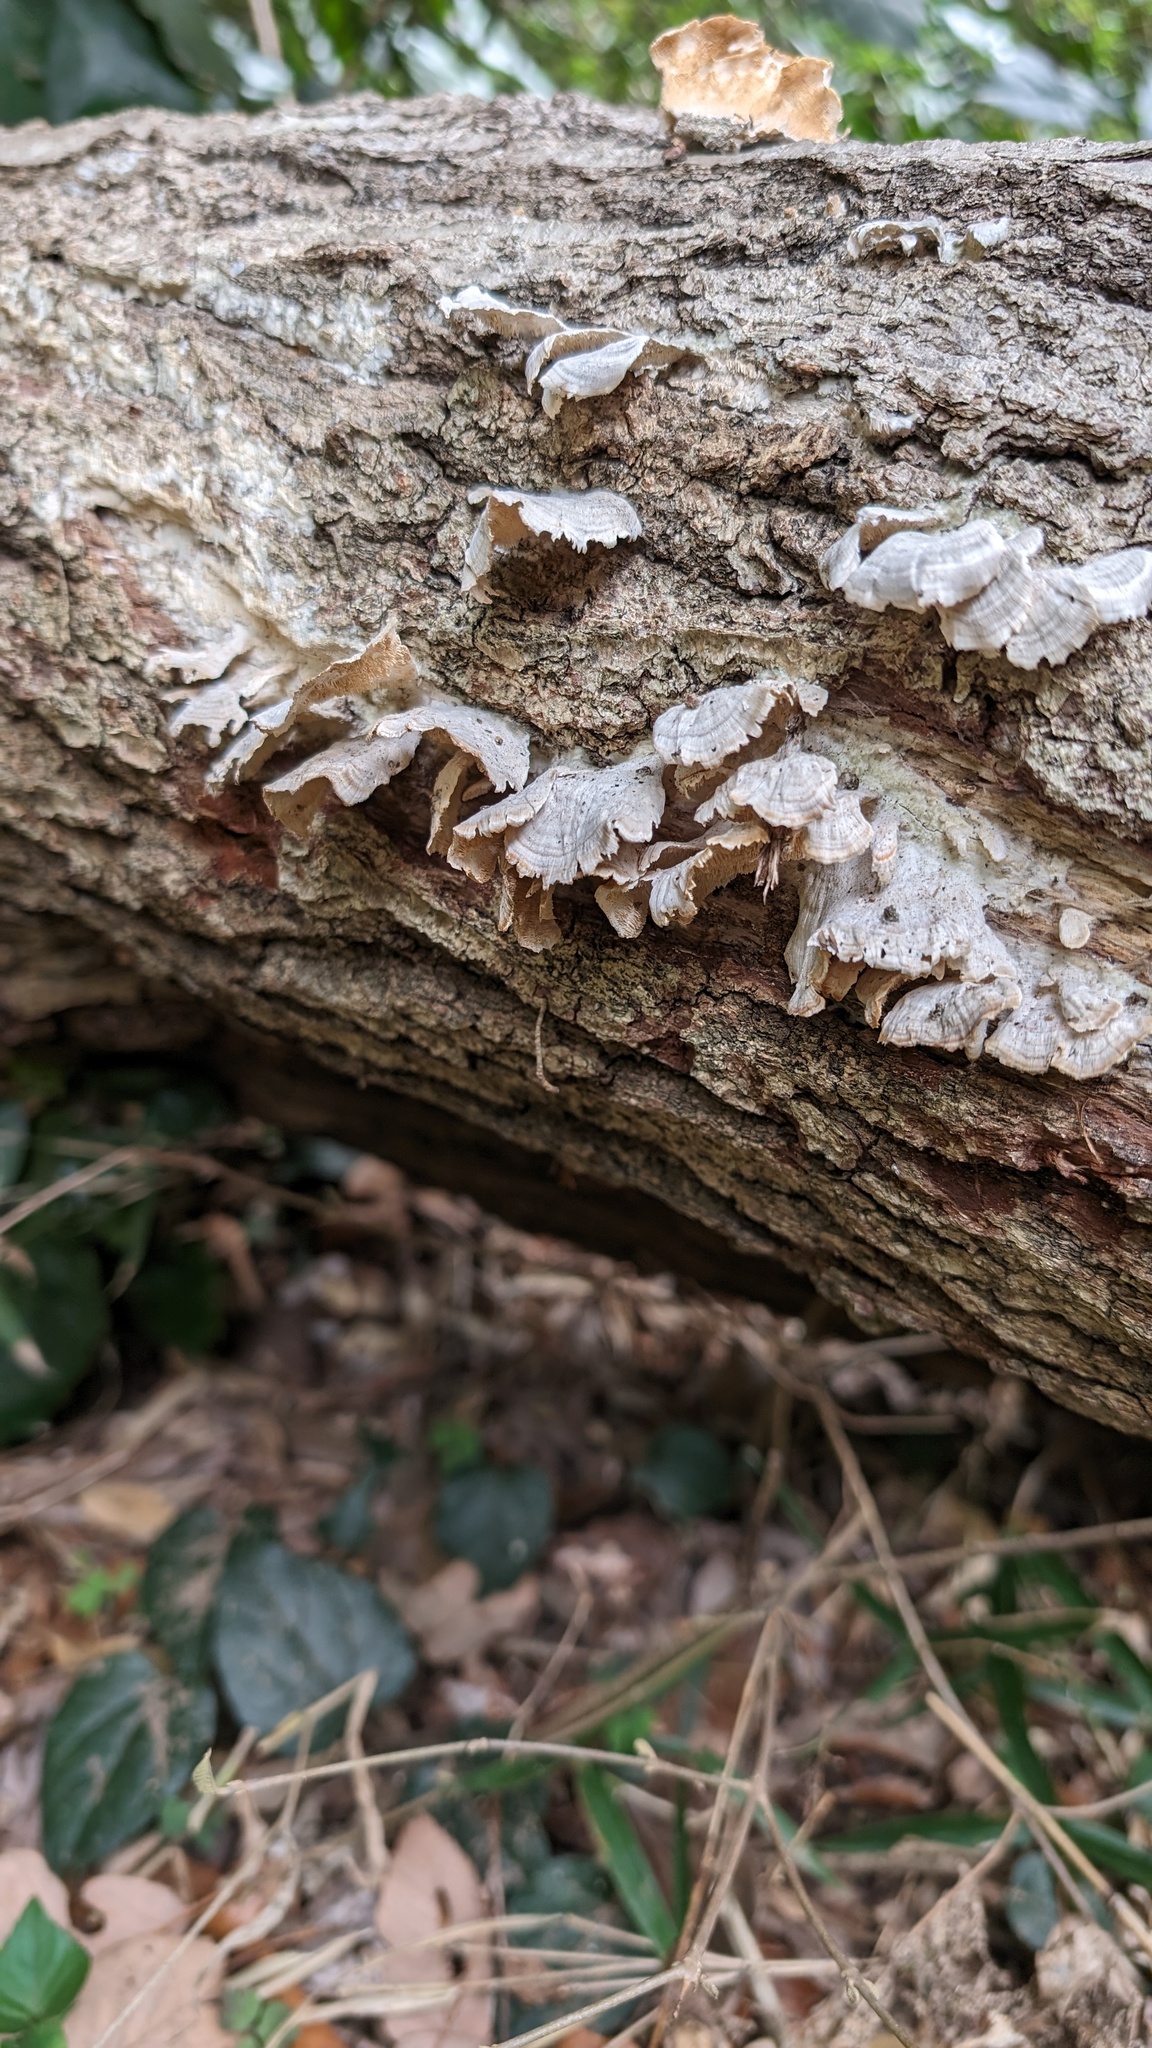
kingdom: Fungi
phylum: Basidiomycota
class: Agaricomycetes
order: Hymenochaetales
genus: Trichaptum
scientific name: Trichaptum biforme
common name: Violet-toothed polypore
